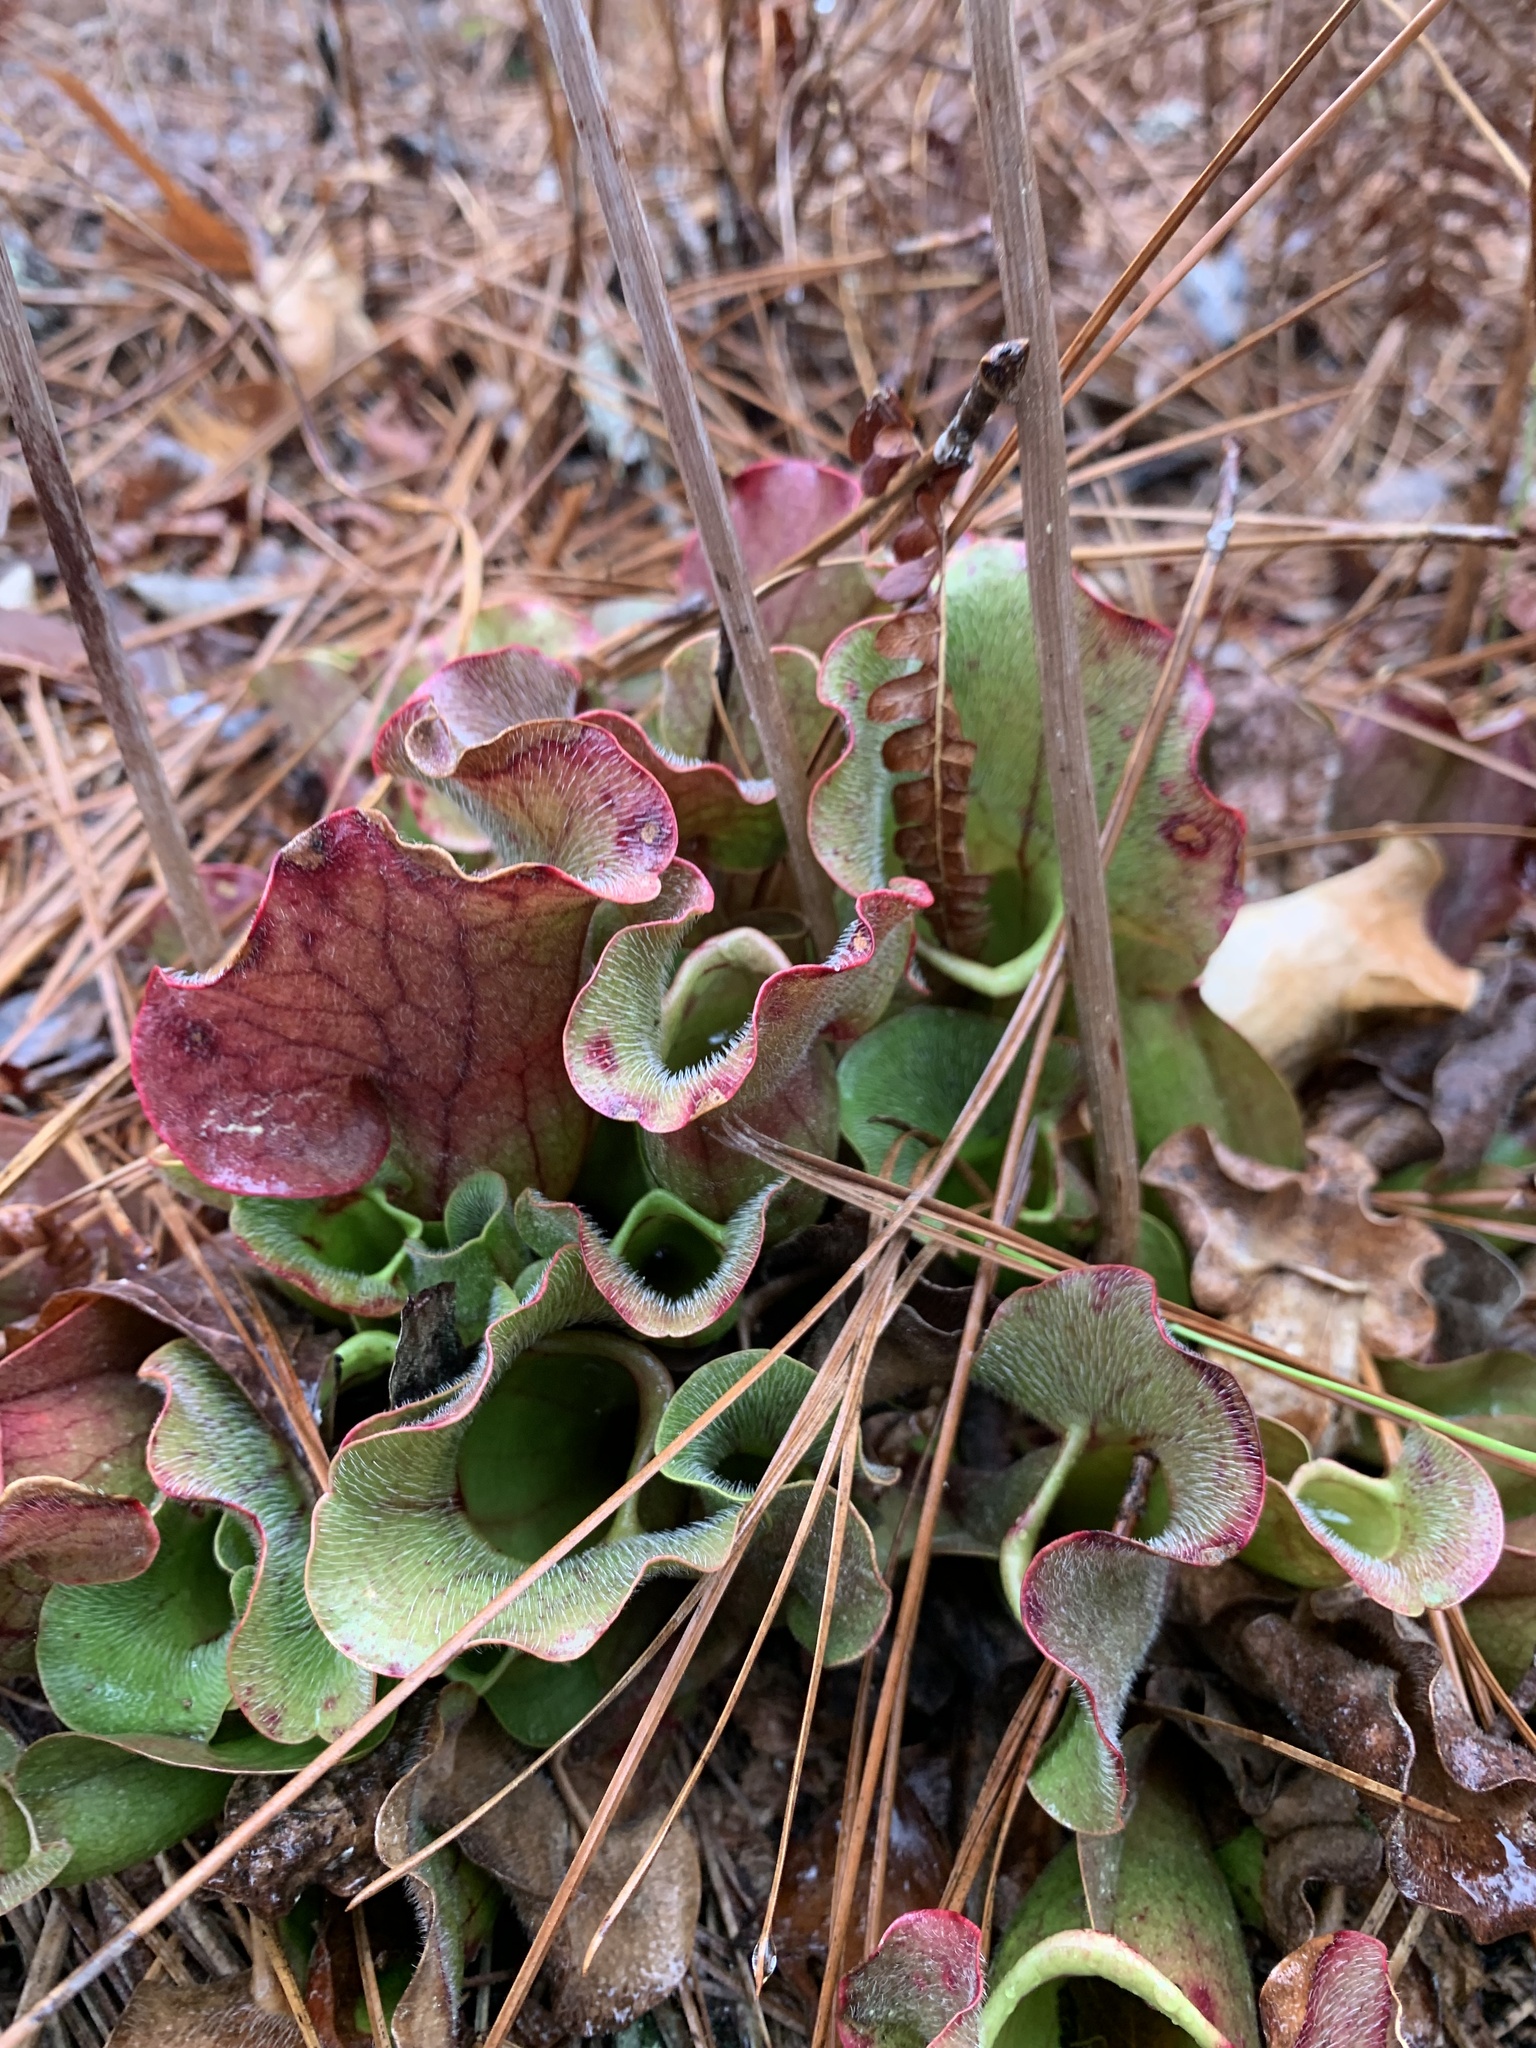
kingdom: Plantae
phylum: Tracheophyta
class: Magnoliopsida
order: Ericales
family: Sarraceniaceae
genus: Sarracenia
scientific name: Sarracenia purpurea
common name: Pitcherplant
